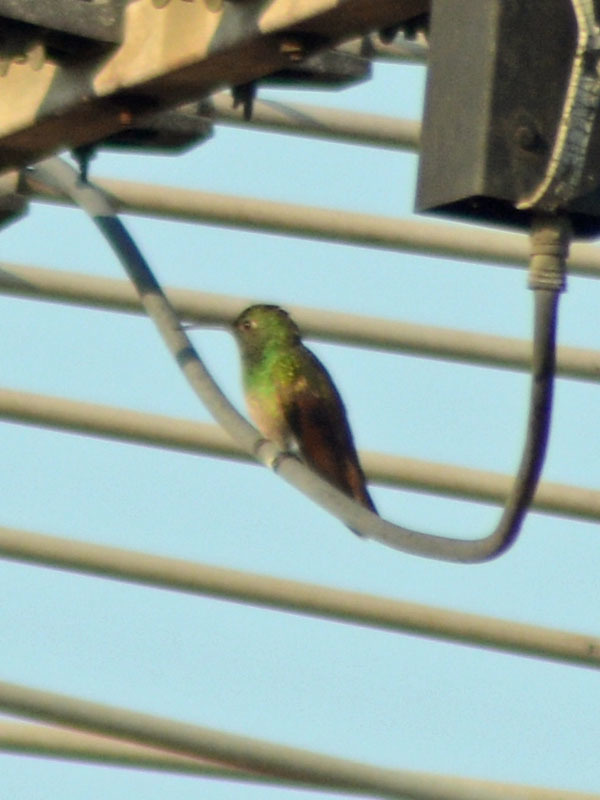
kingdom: Animalia
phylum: Chordata
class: Aves
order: Apodiformes
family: Trochilidae
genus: Saucerottia
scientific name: Saucerottia beryllina
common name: Berylline hummingbird
